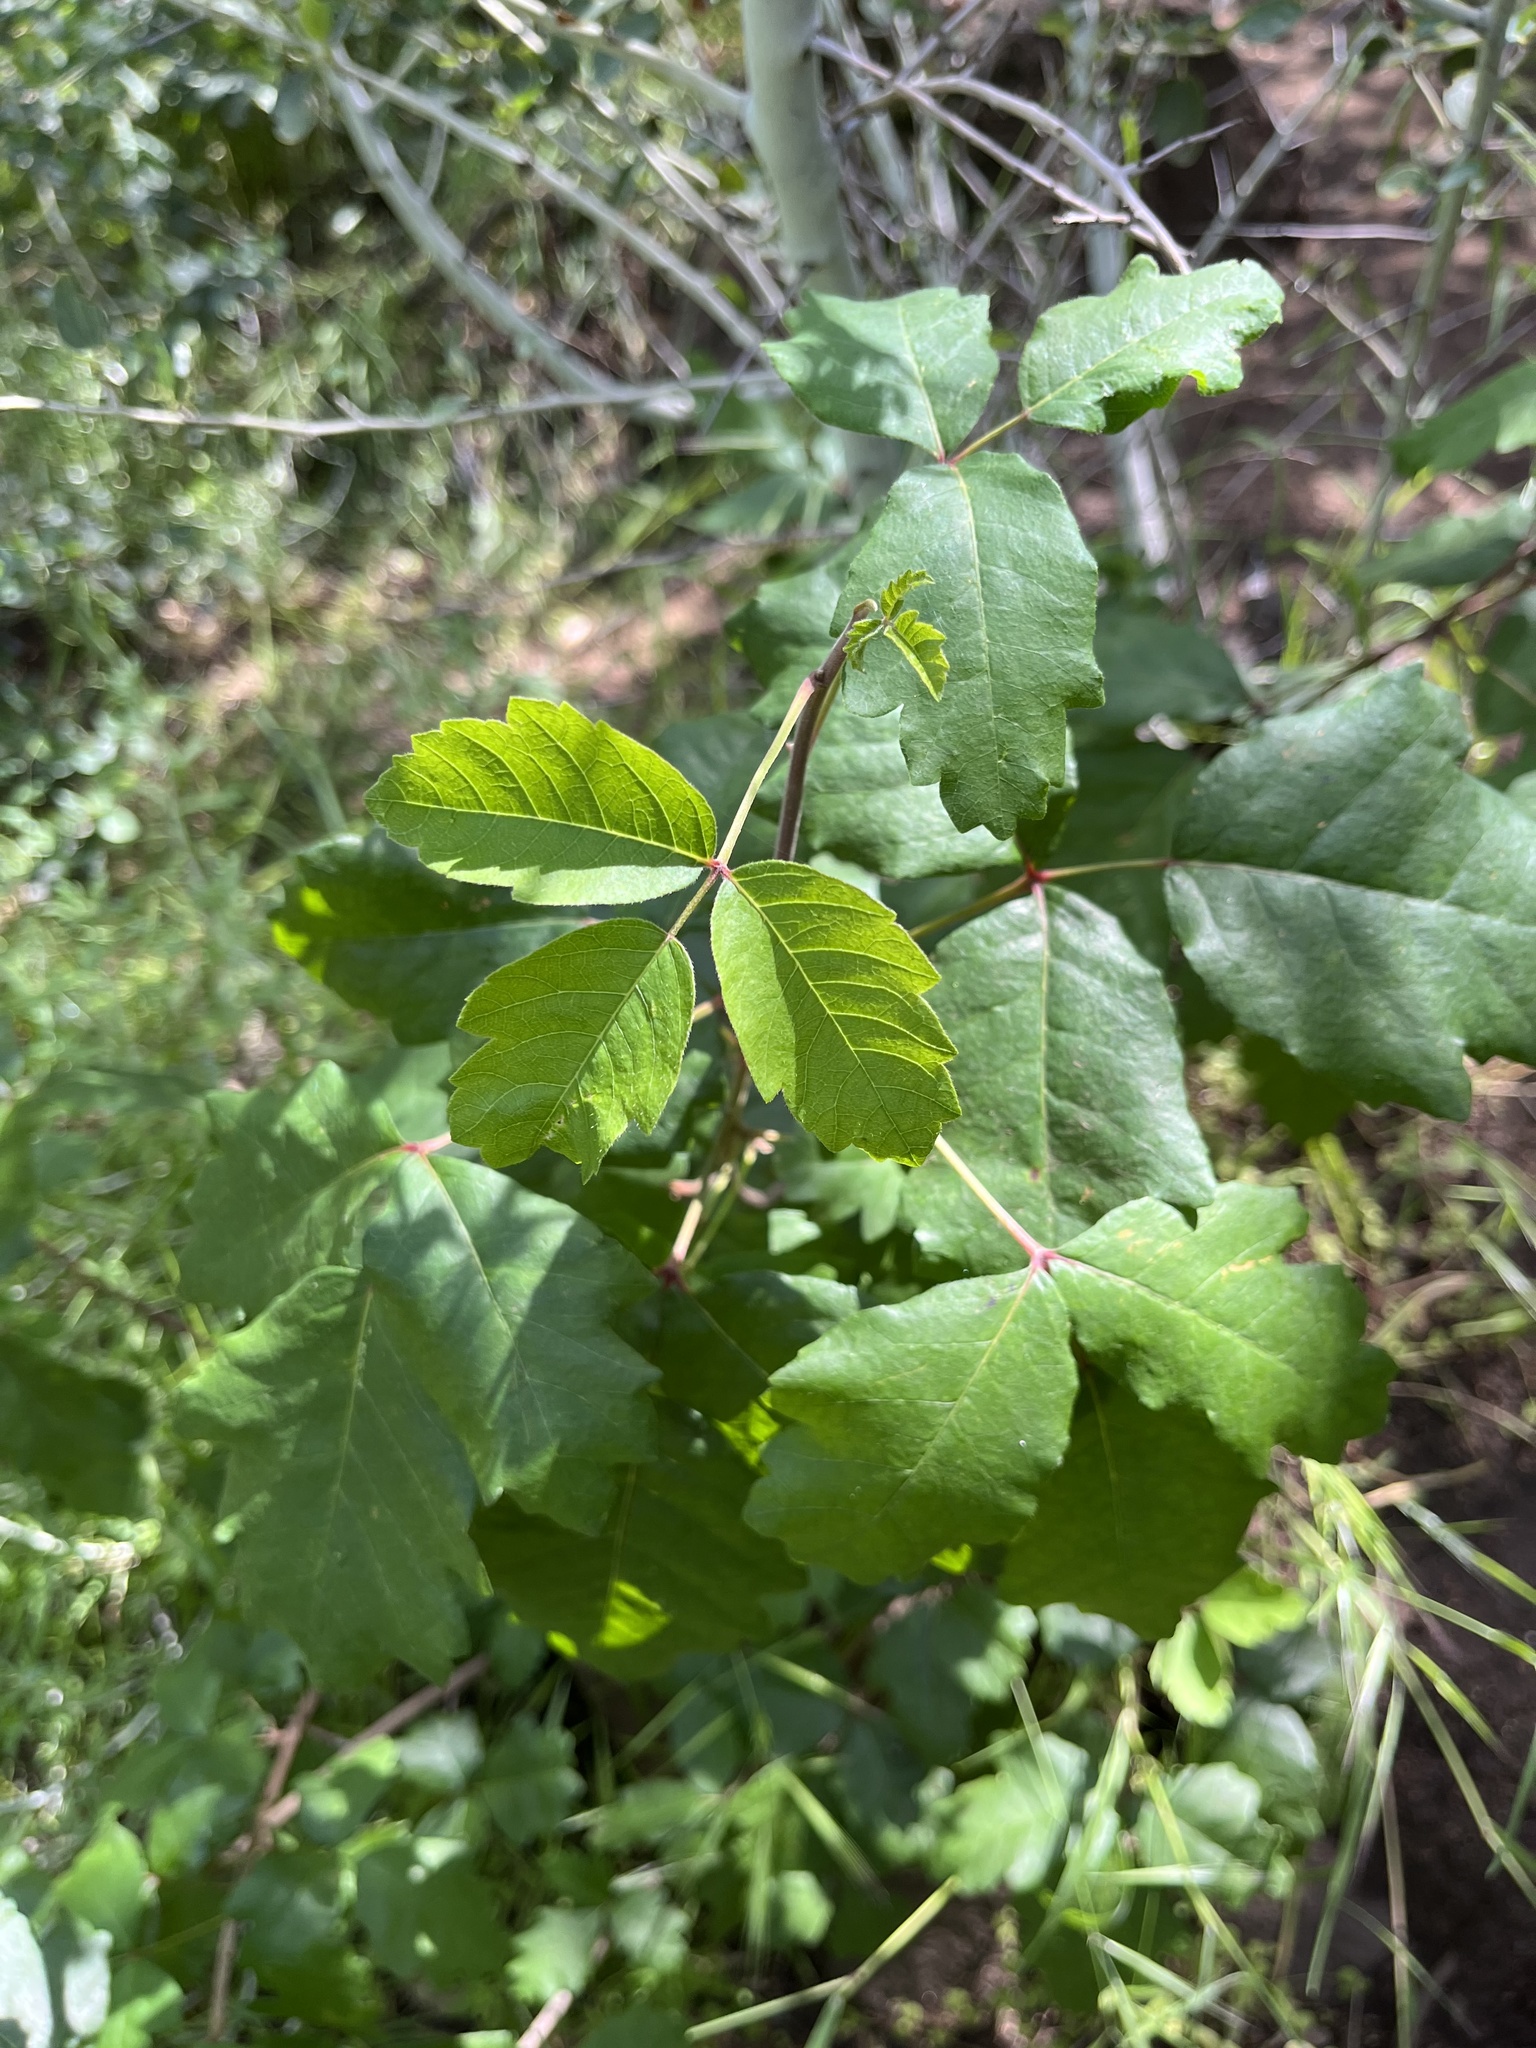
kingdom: Plantae
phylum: Tracheophyta
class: Magnoliopsida
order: Sapindales
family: Anacardiaceae
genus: Toxicodendron
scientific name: Toxicodendron diversilobum
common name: Pacific poison-oak
